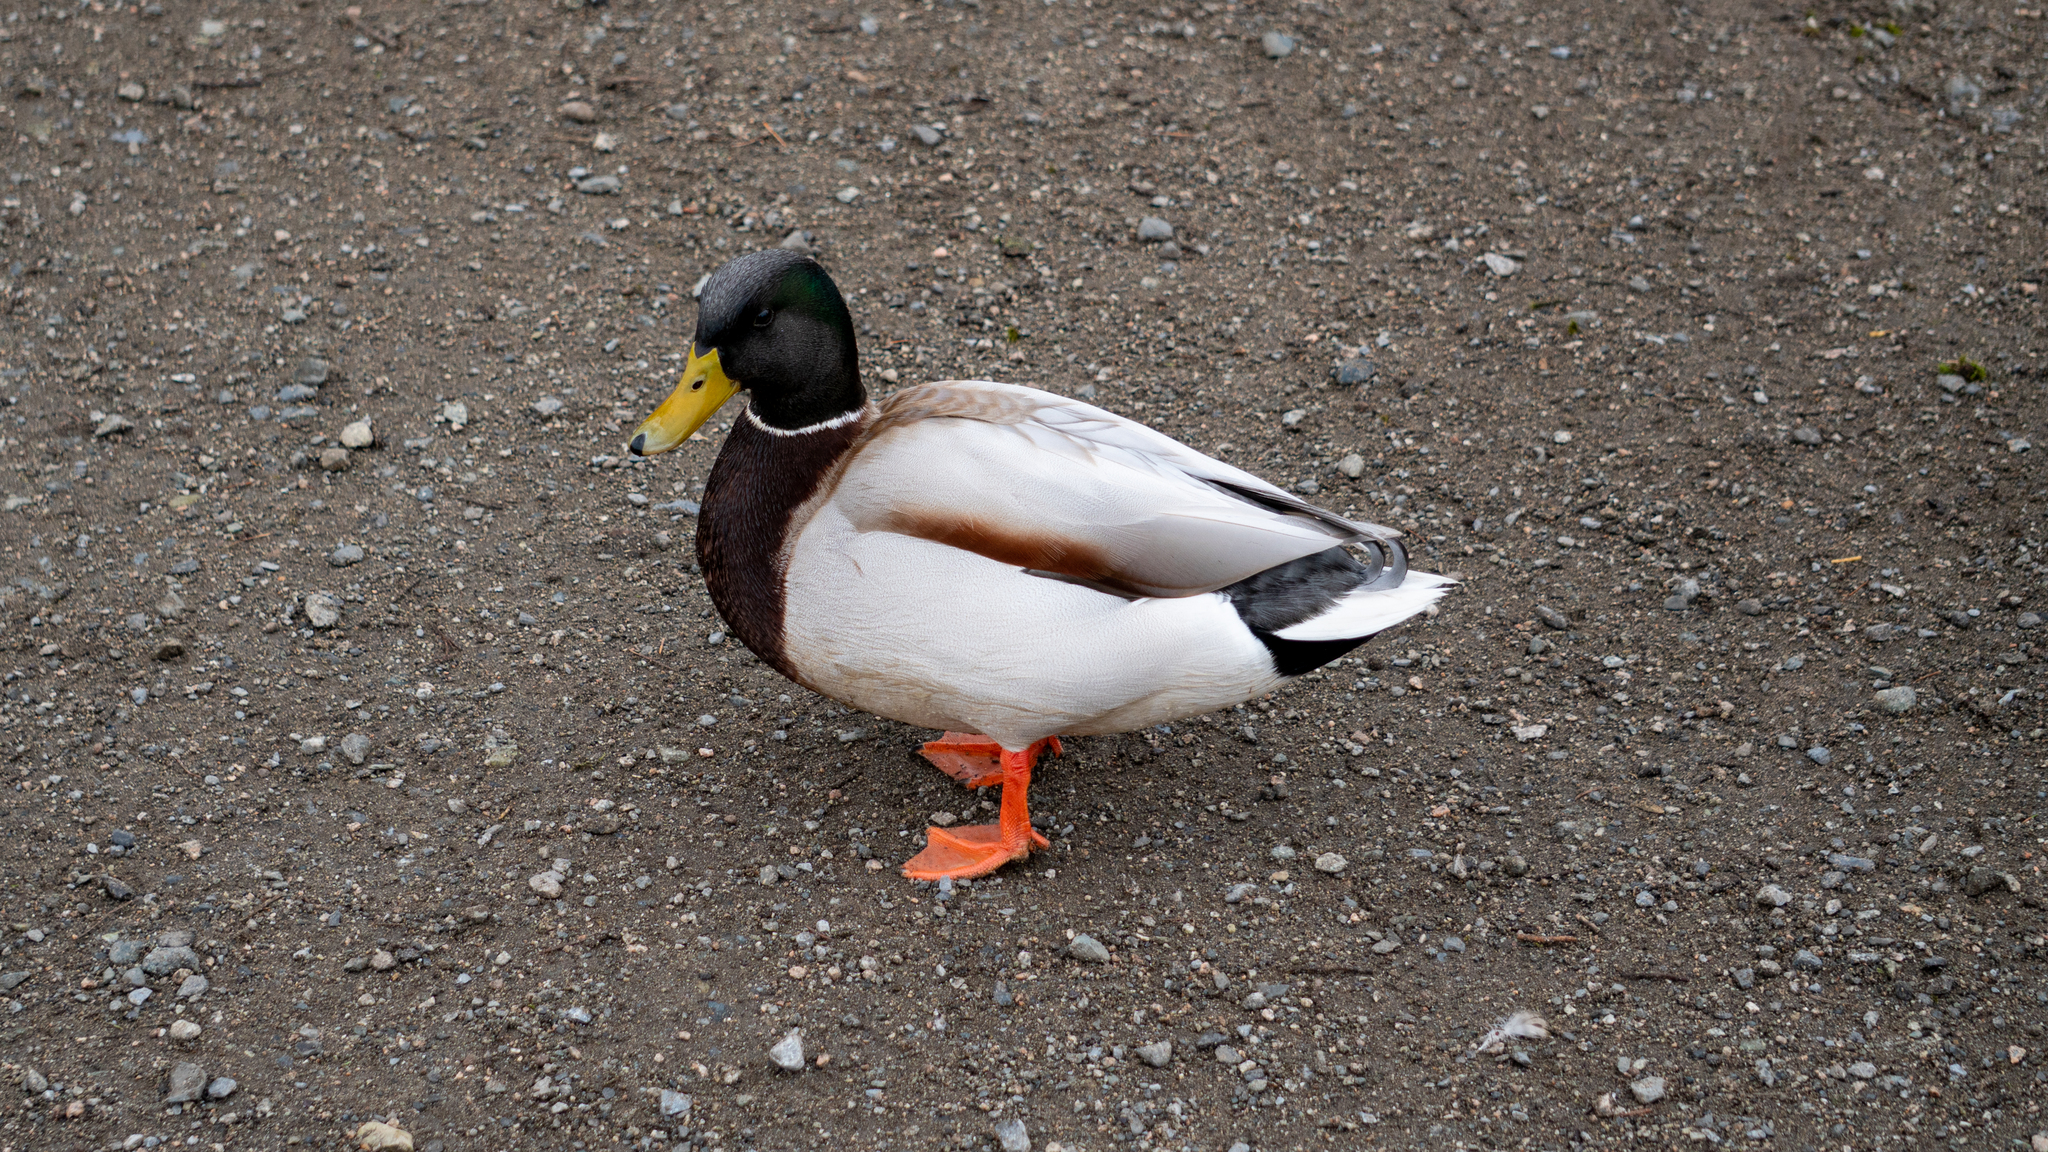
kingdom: Animalia
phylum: Chordata
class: Aves
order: Anseriformes
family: Anatidae
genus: Anas
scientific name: Anas platyrhynchos
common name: Mallard
